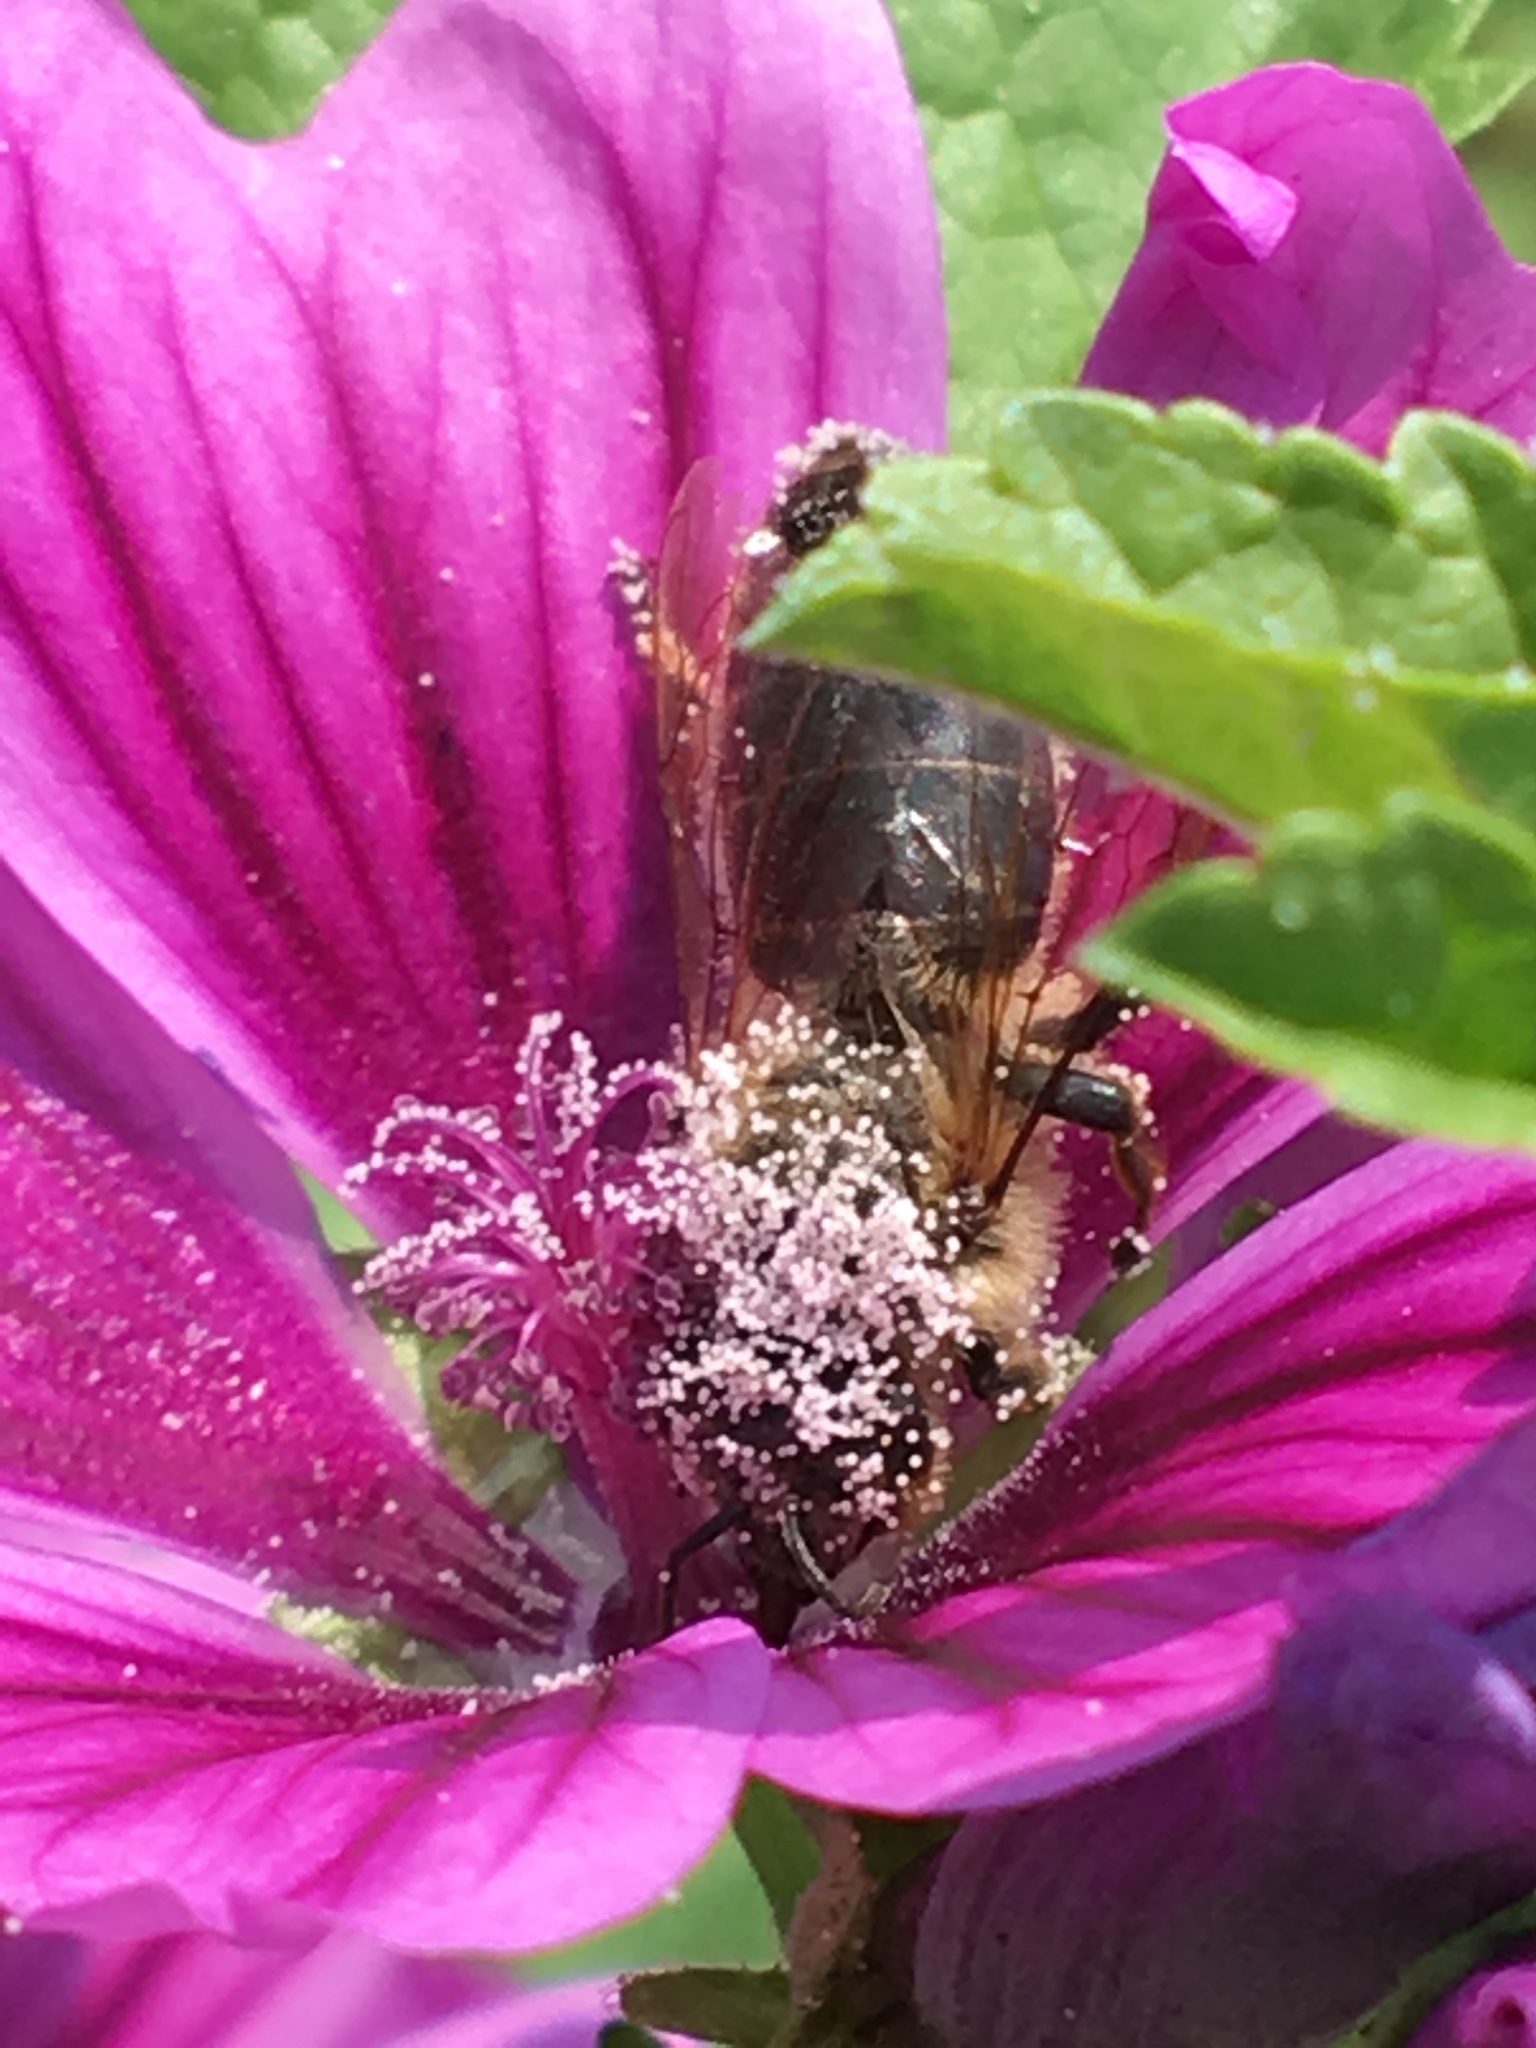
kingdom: Animalia
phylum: Arthropoda
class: Insecta
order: Hymenoptera
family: Apidae
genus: Apis
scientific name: Apis mellifera
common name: Honey bee
